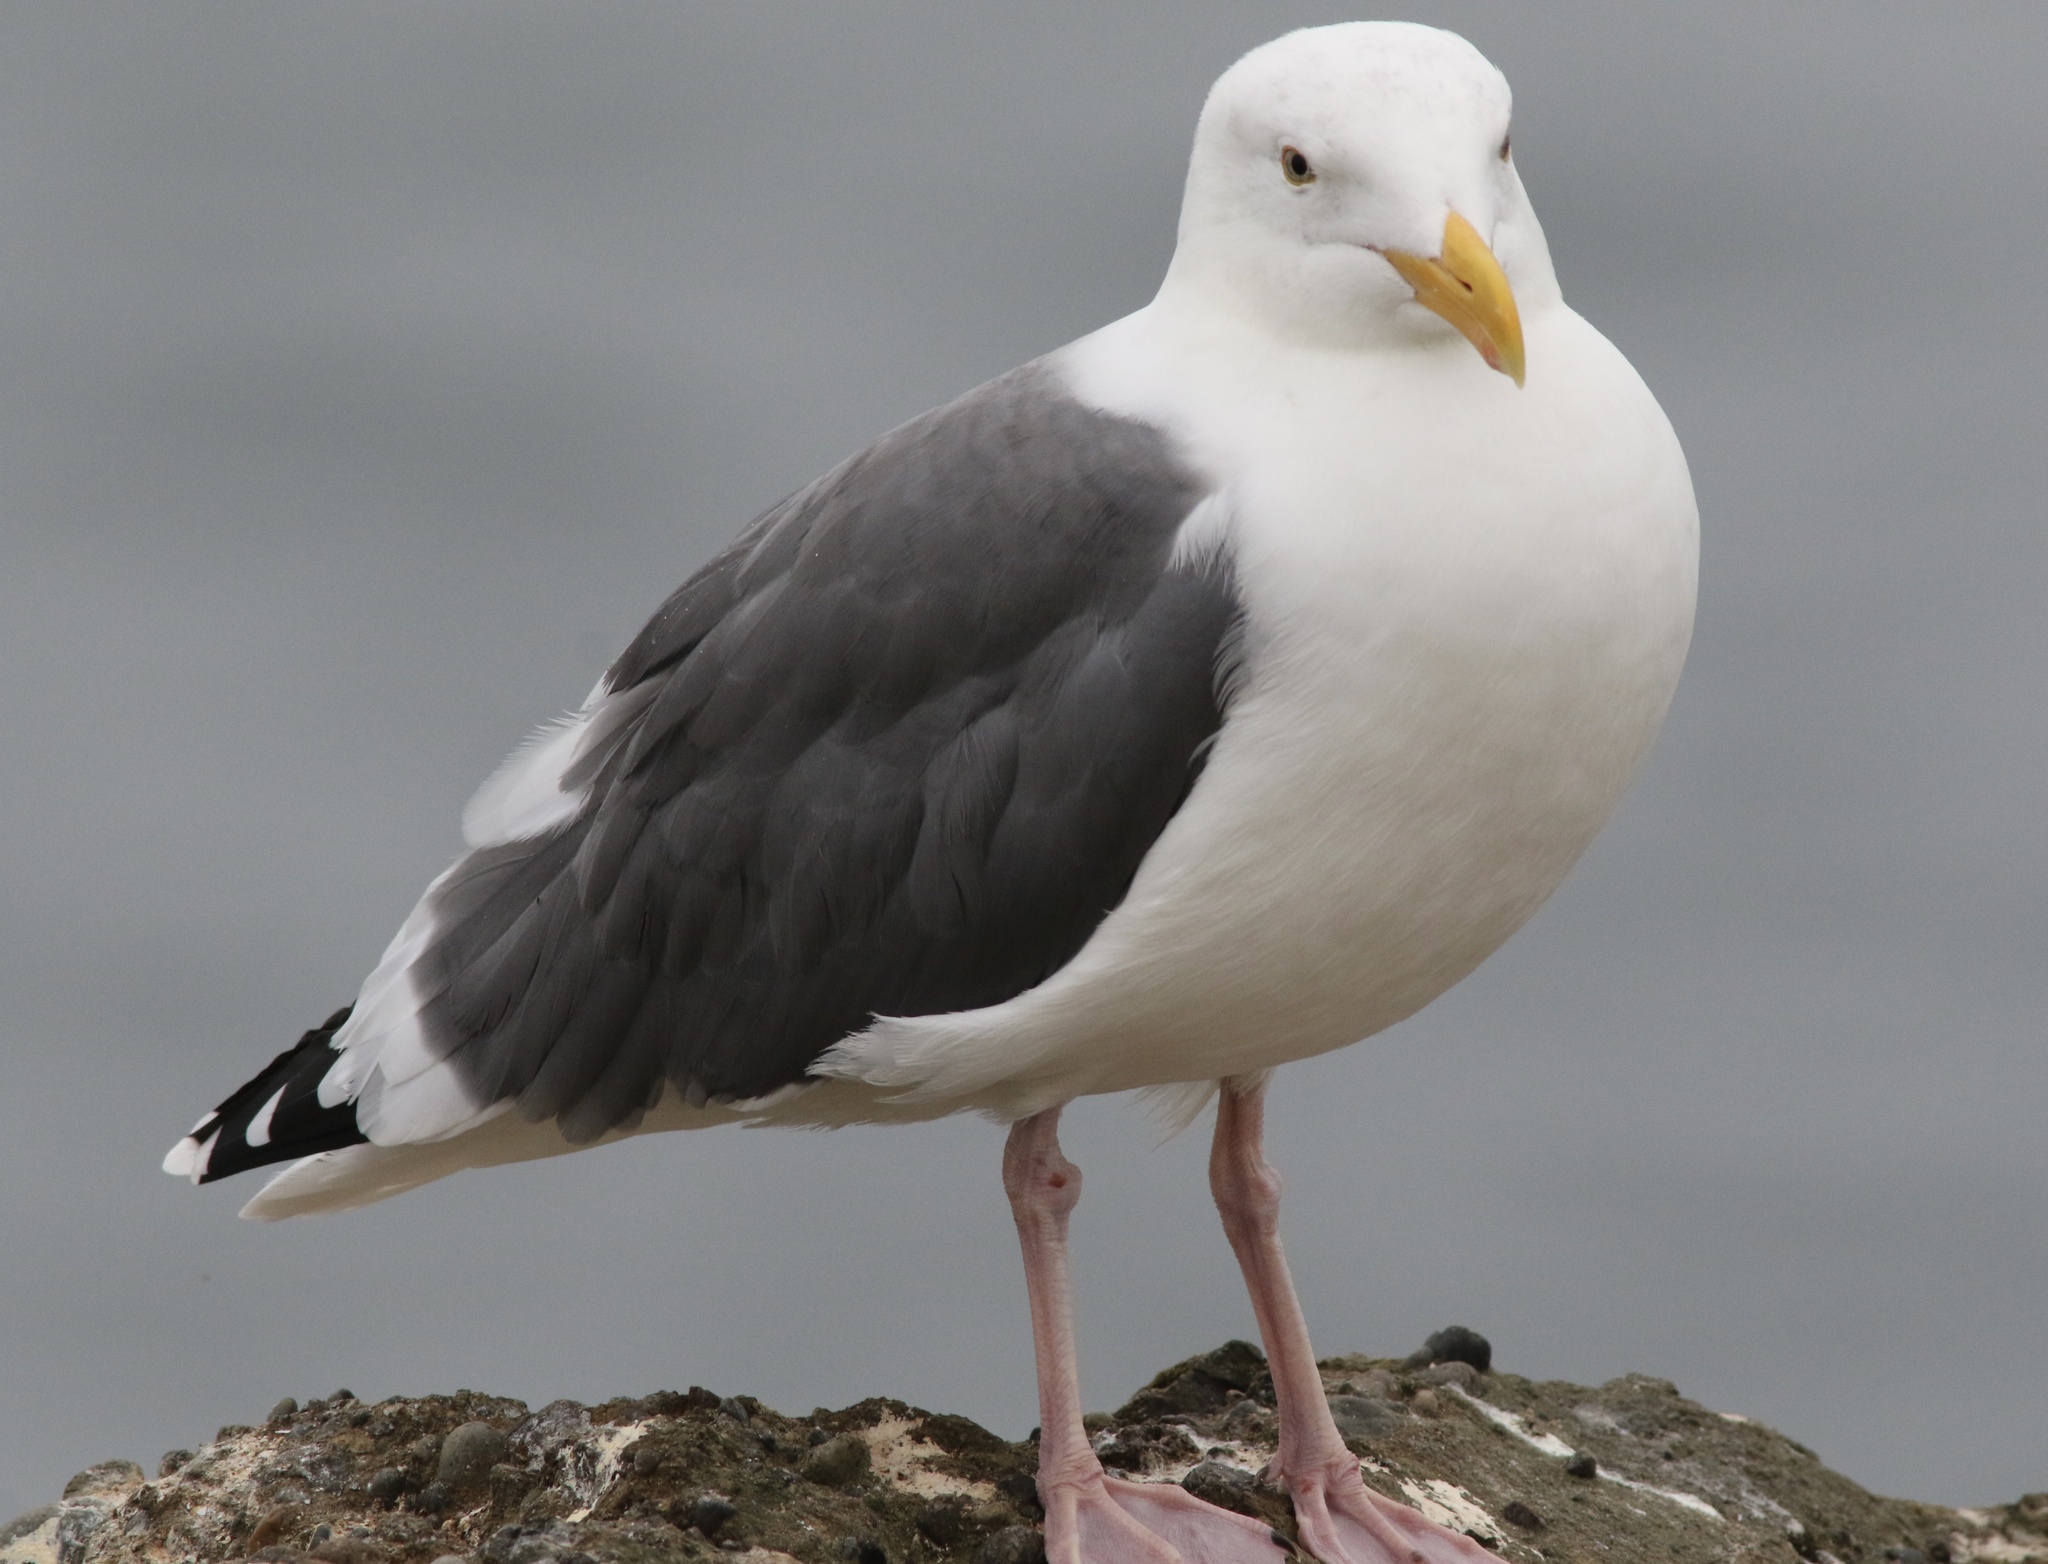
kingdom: Animalia
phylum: Chordata
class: Aves
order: Charadriiformes
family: Laridae
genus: Larus
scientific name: Larus occidentalis
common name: Western gull
